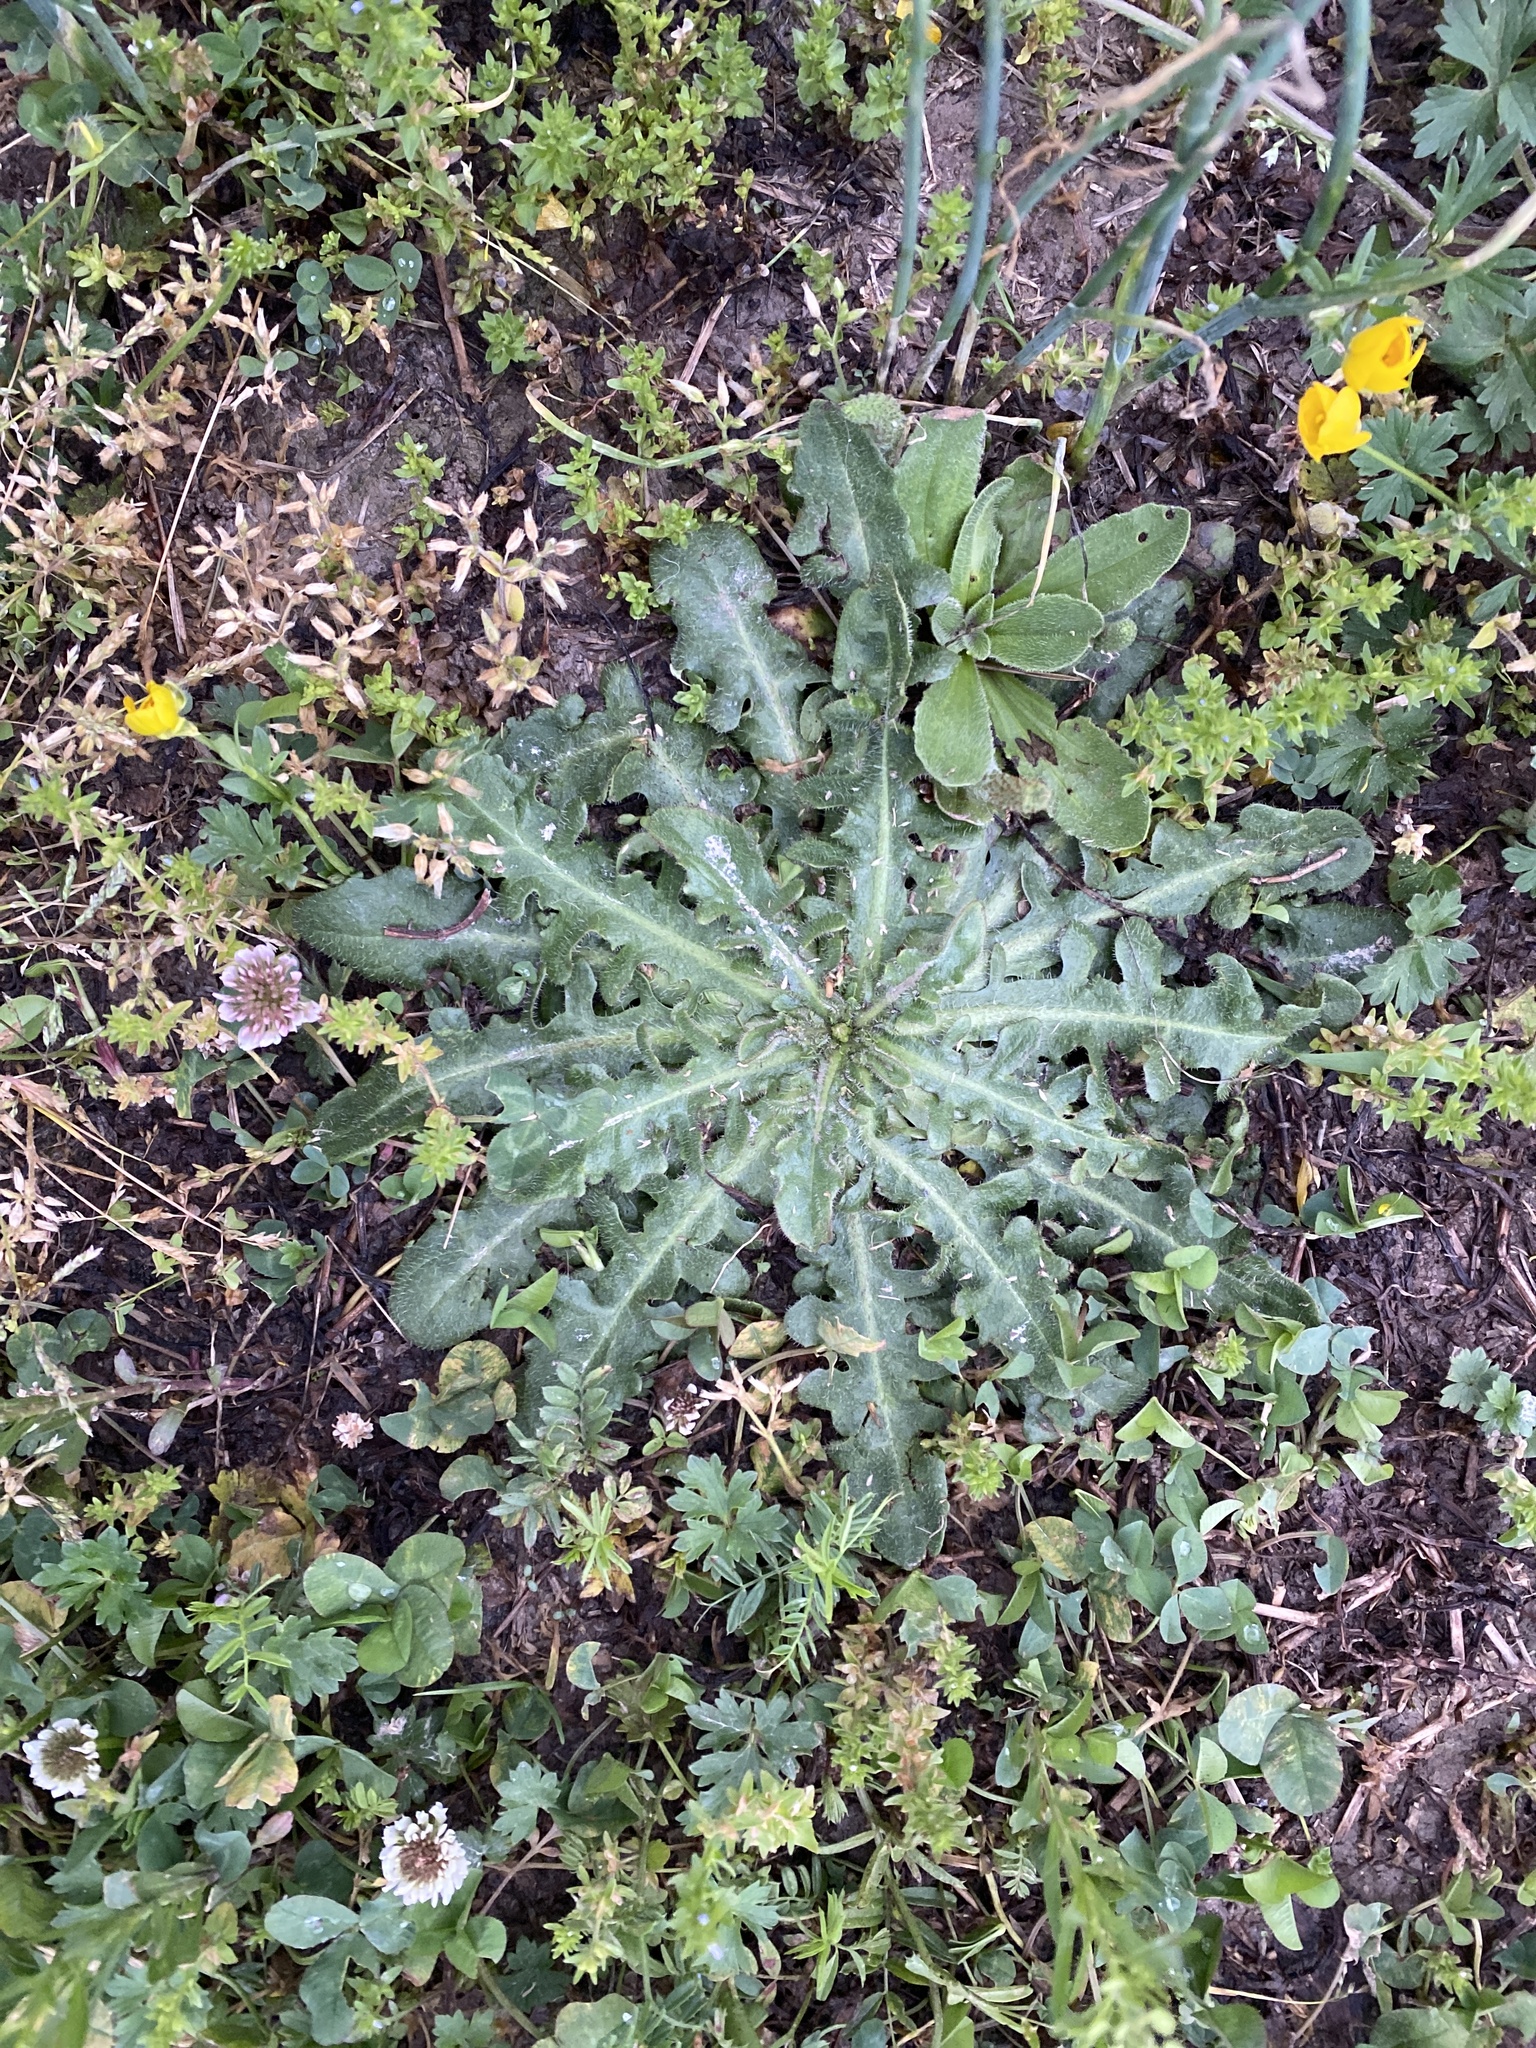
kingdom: Plantae
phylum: Tracheophyta
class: Magnoliopsida
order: Asterales
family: Asteraceae
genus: Hypochaeris
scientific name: Hypochaeris radicata
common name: Flatweed
